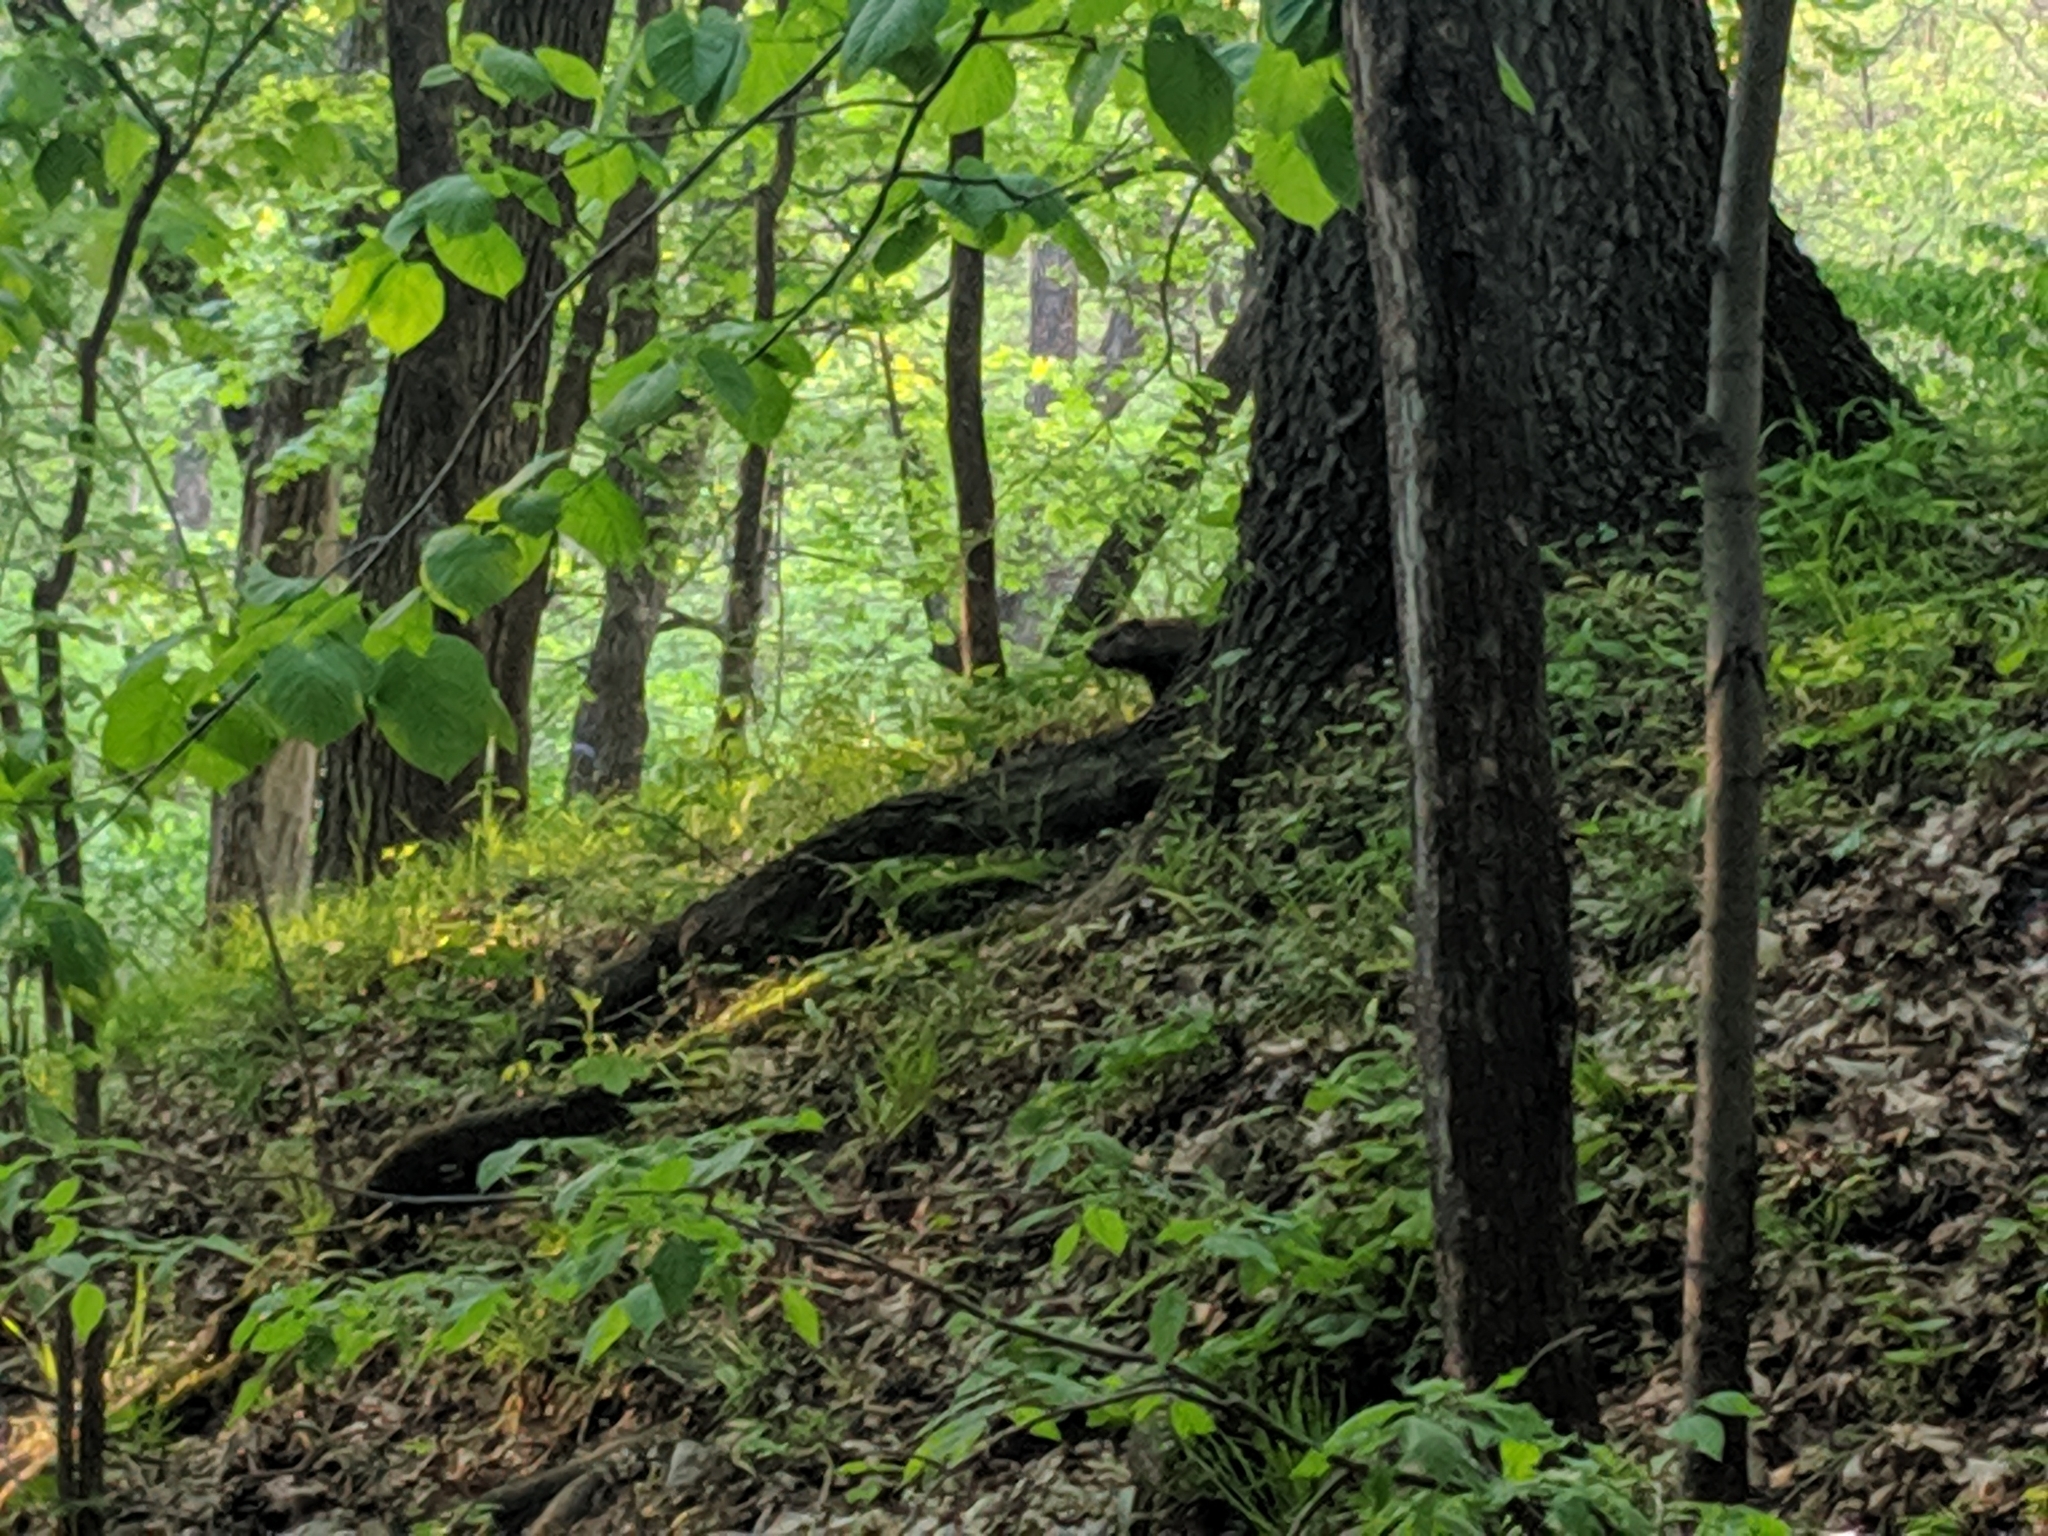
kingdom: Animalia
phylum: Chordata
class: Mammalia
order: Rodentia
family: Sciuridae
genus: Marmota
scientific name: Marmota monax
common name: Groundhog
